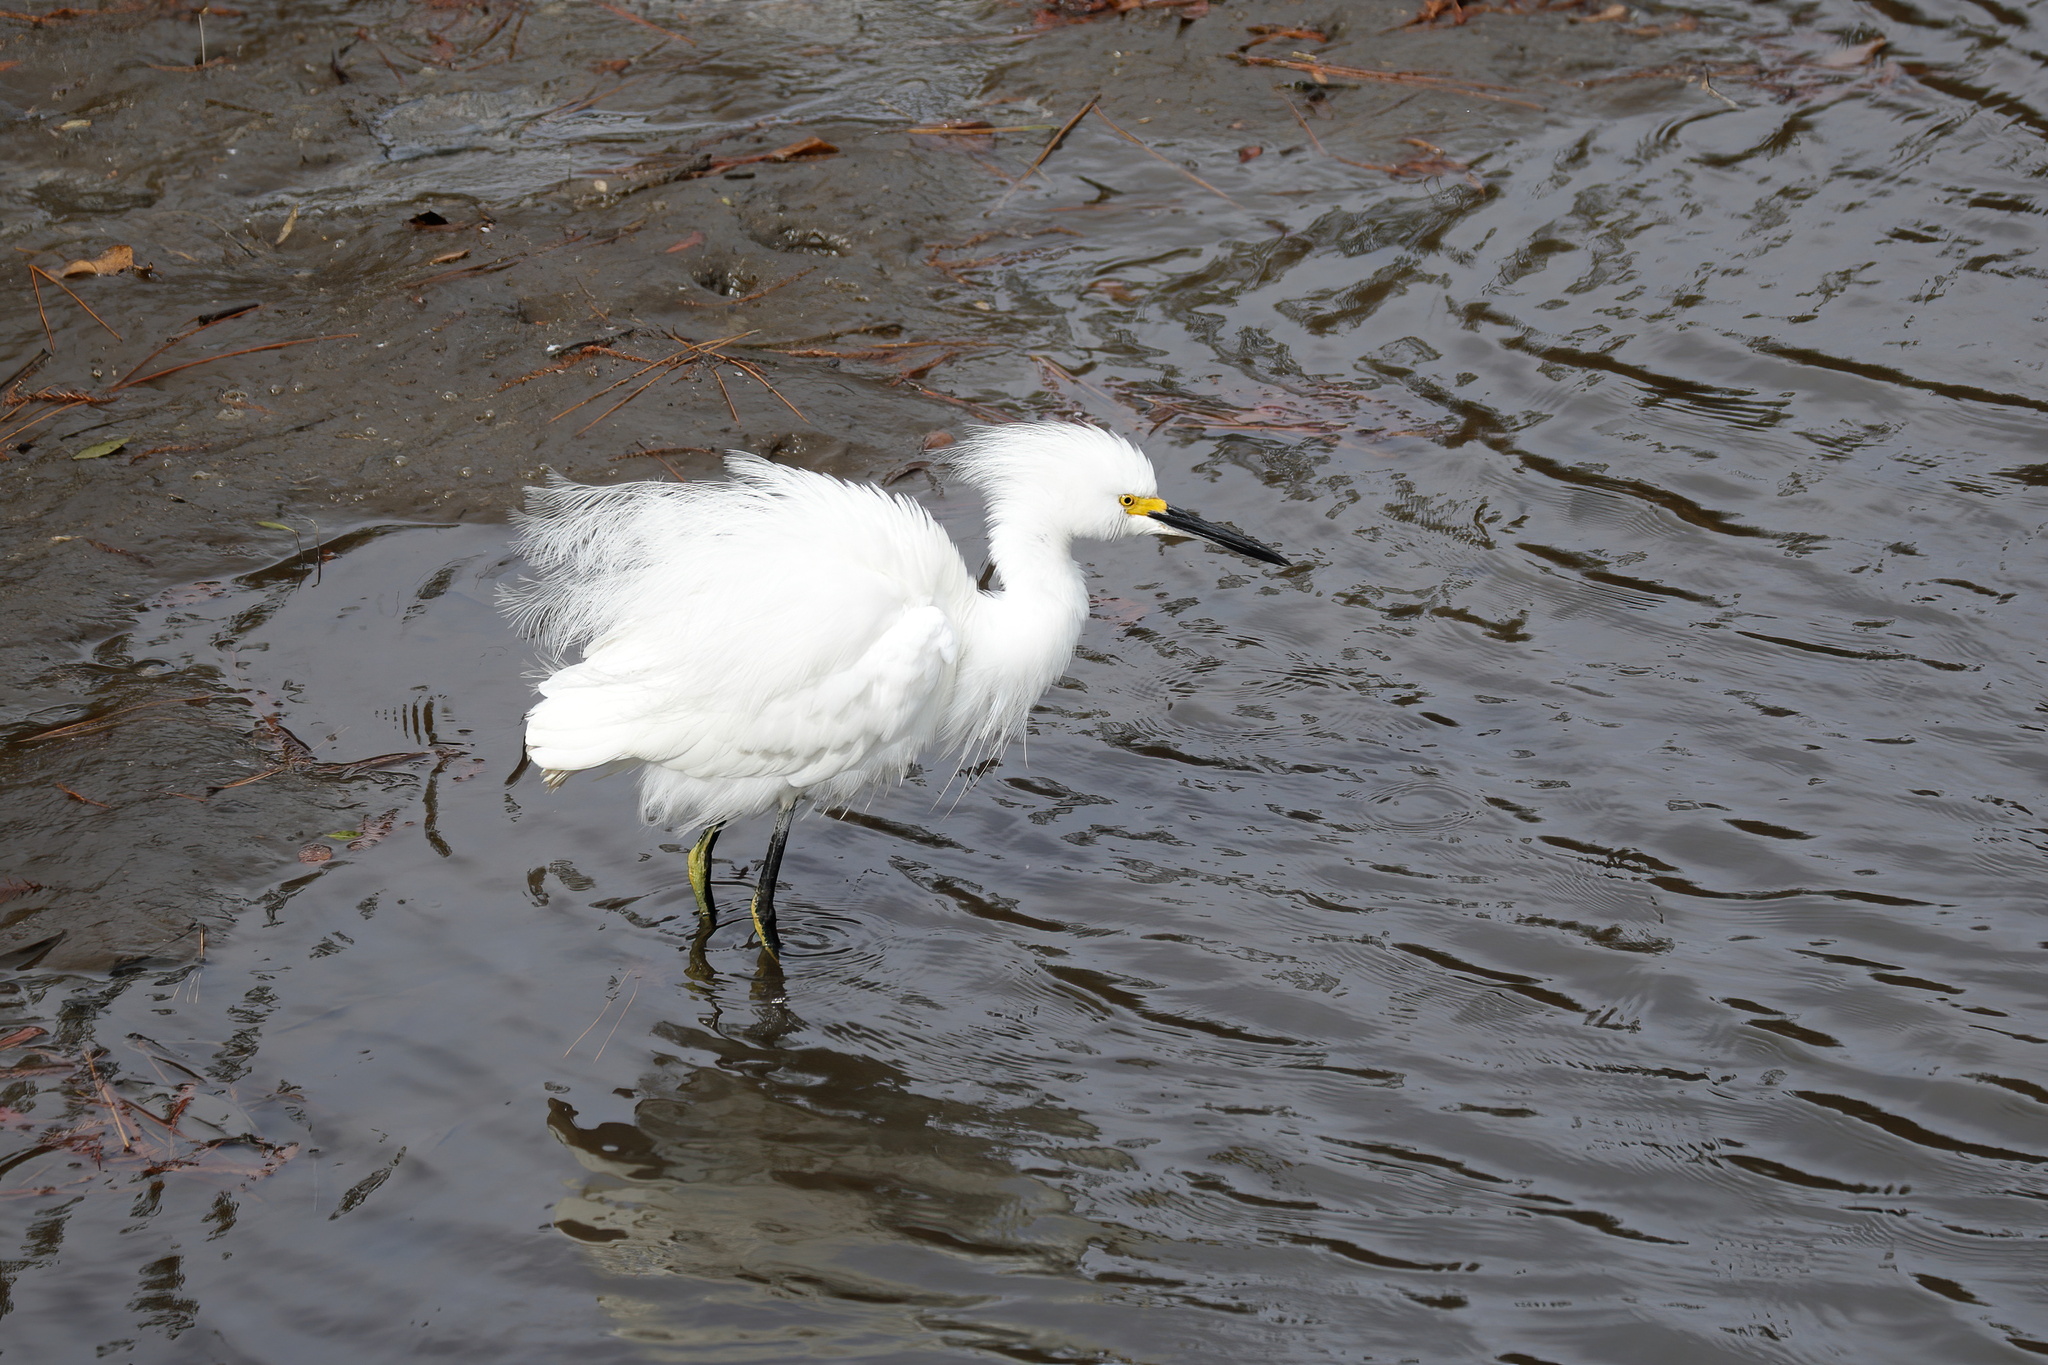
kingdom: Animalia
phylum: Chordata
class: Aves
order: Pelecaniformes
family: Ardeidae
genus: Egretta
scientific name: Egretta thula
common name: Snowy egret
